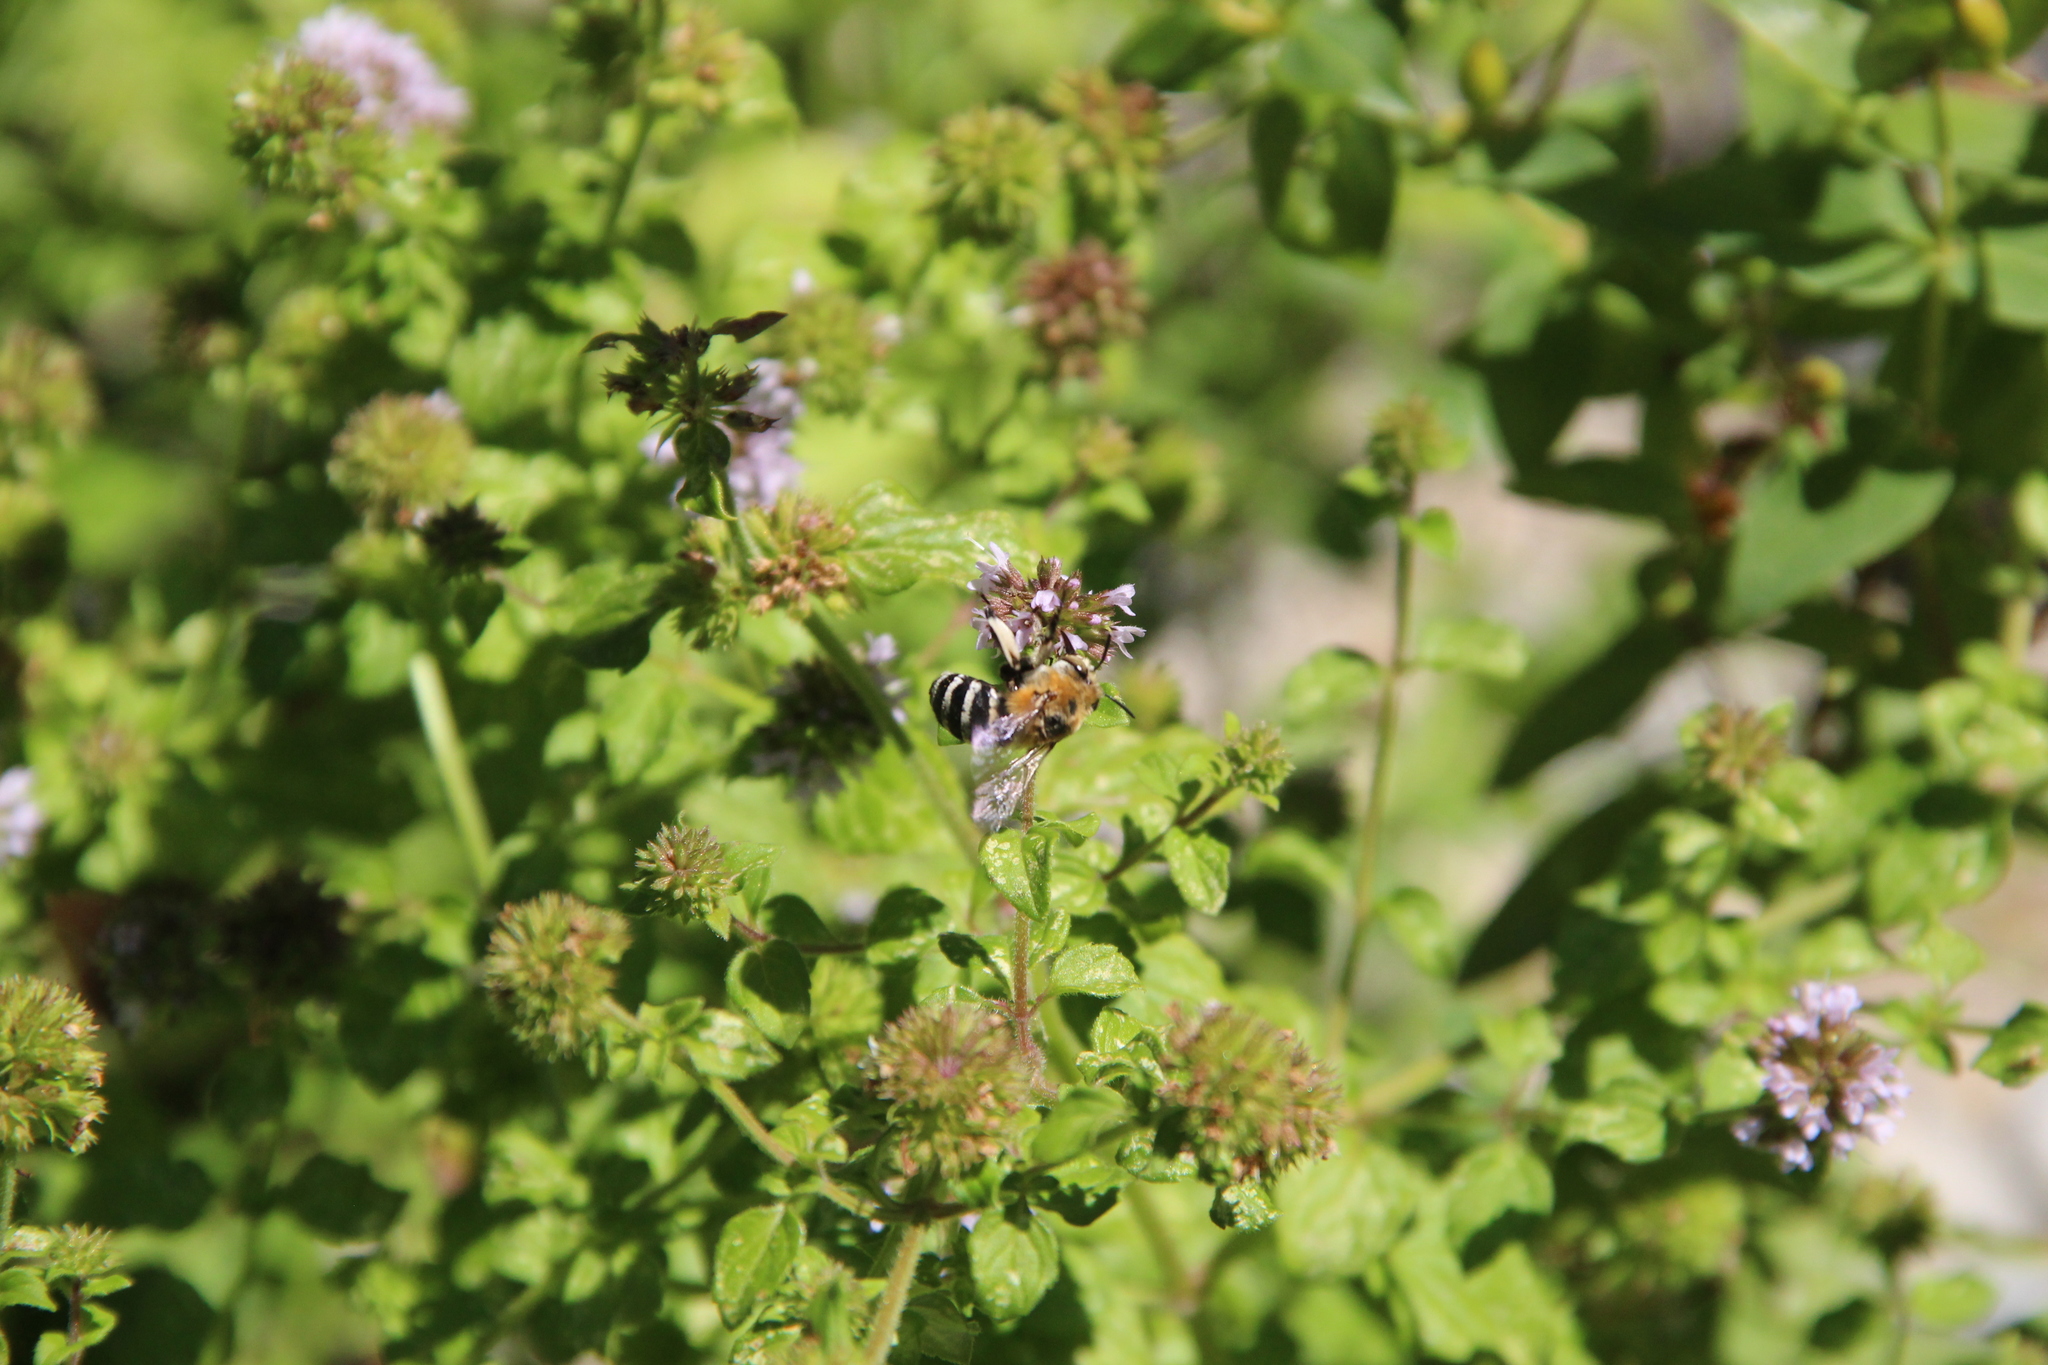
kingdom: Animalia
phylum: Arthropoda
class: Insecta
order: Hymenoptera
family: Apidae
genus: Amegilla
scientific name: Amegilla quadrifasciata
